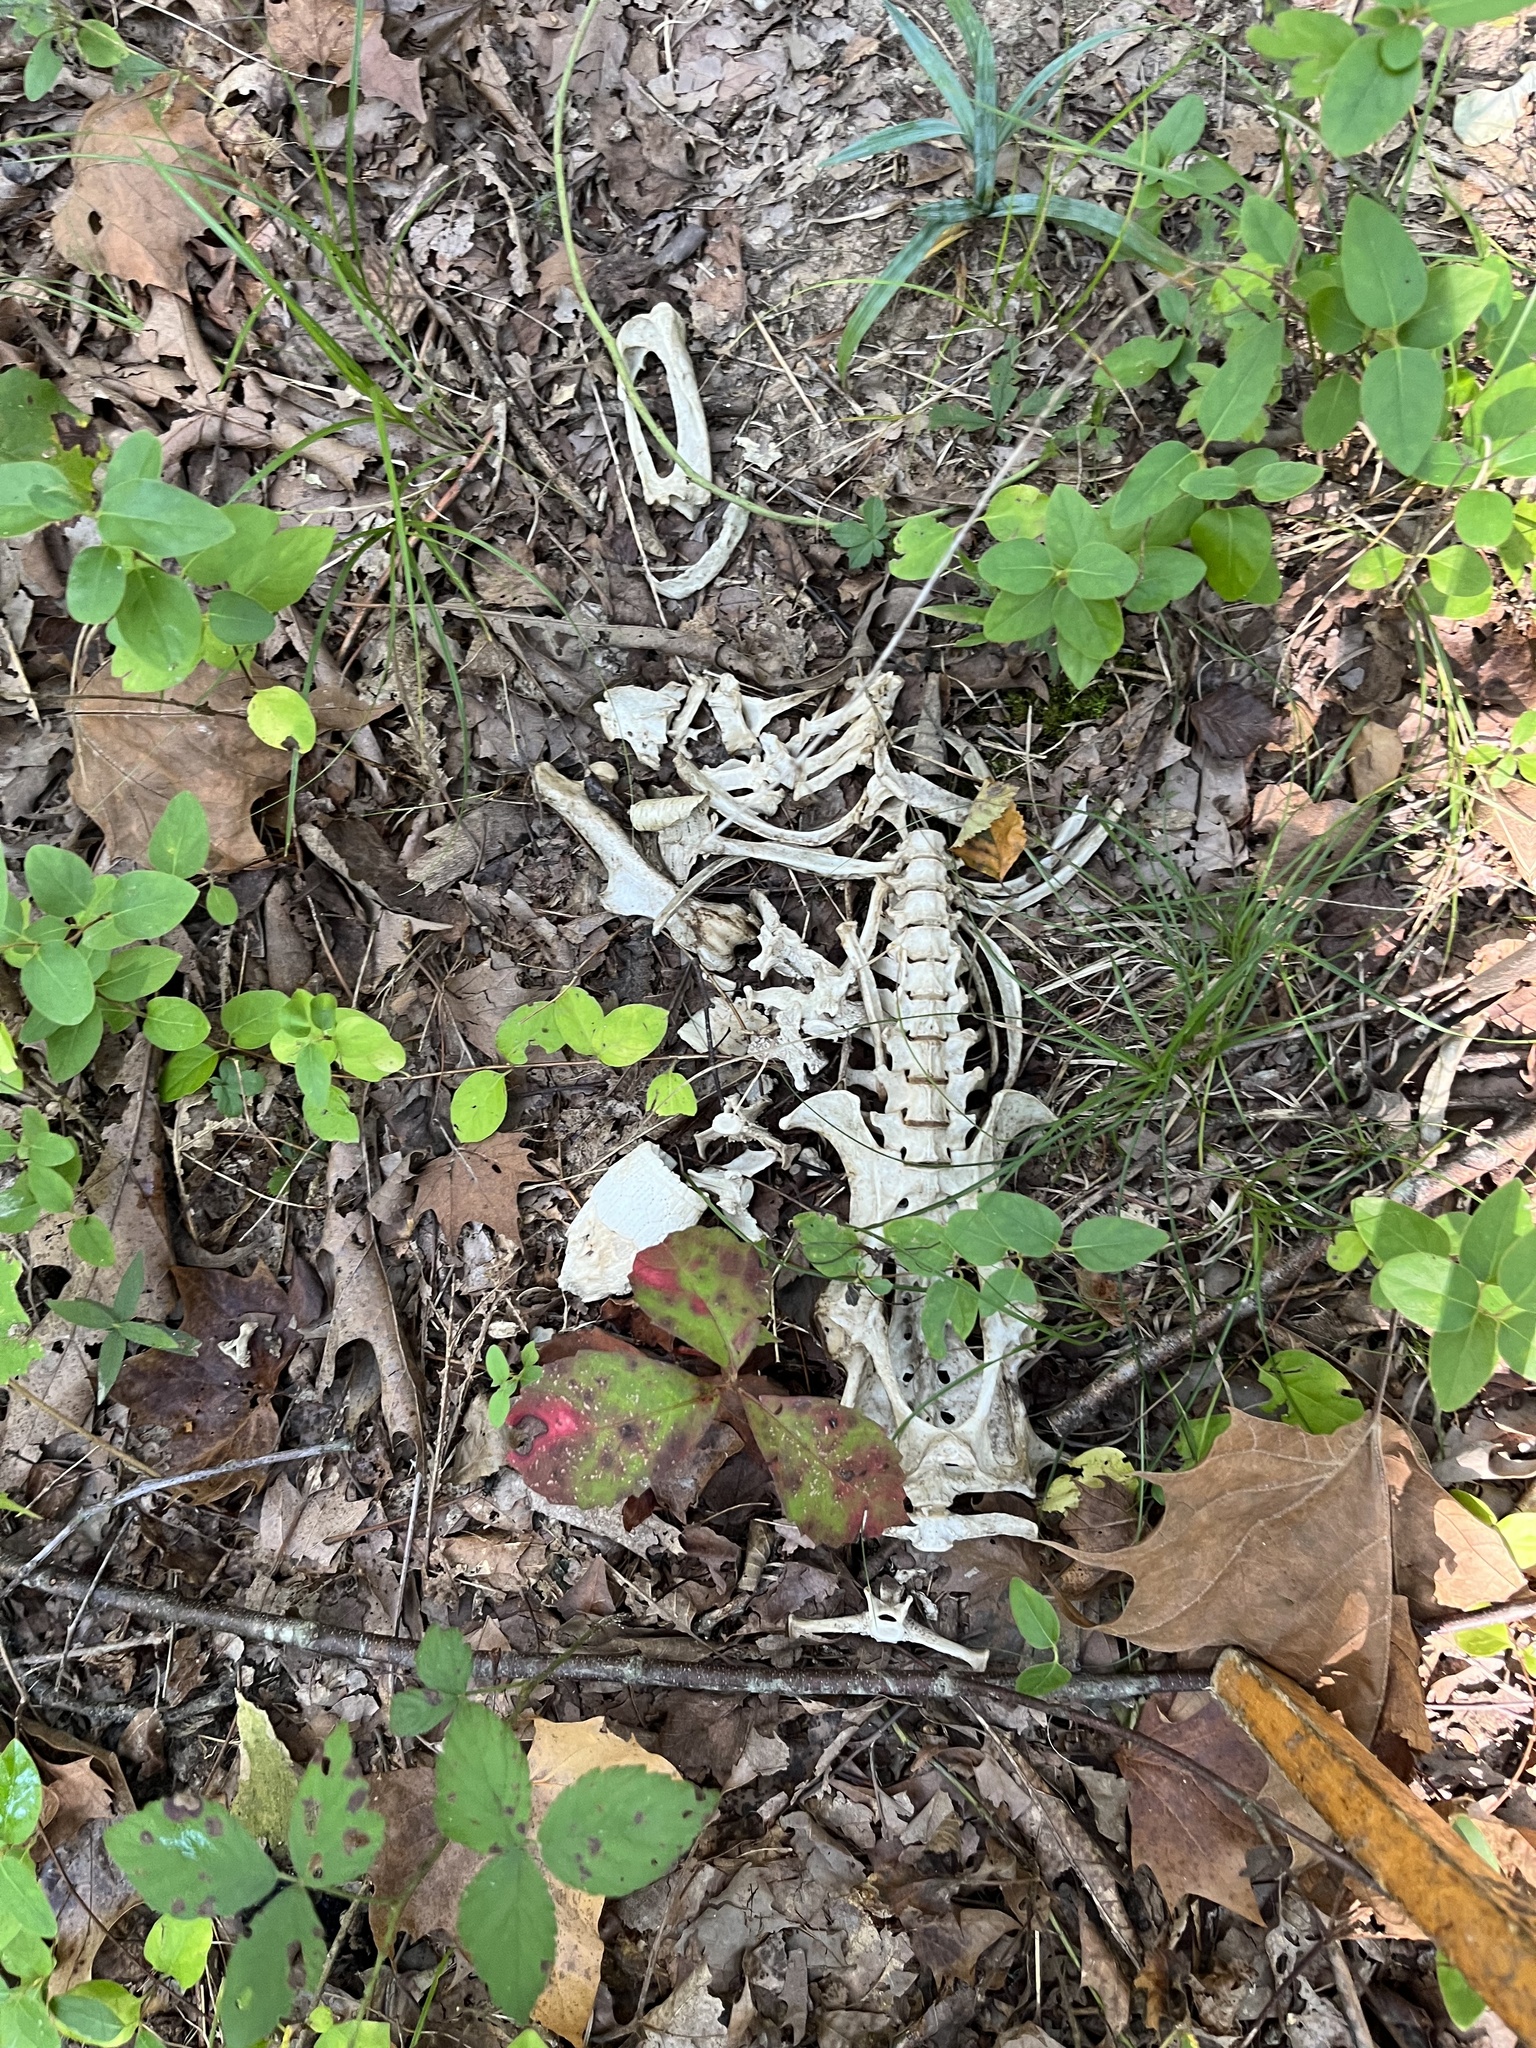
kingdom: Animalia
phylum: Chordata
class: Mammalia
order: Cingulata
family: Dasypodidae
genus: Dasypus
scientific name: Dasypus novemcinctus
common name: Nine-banded armadillo
